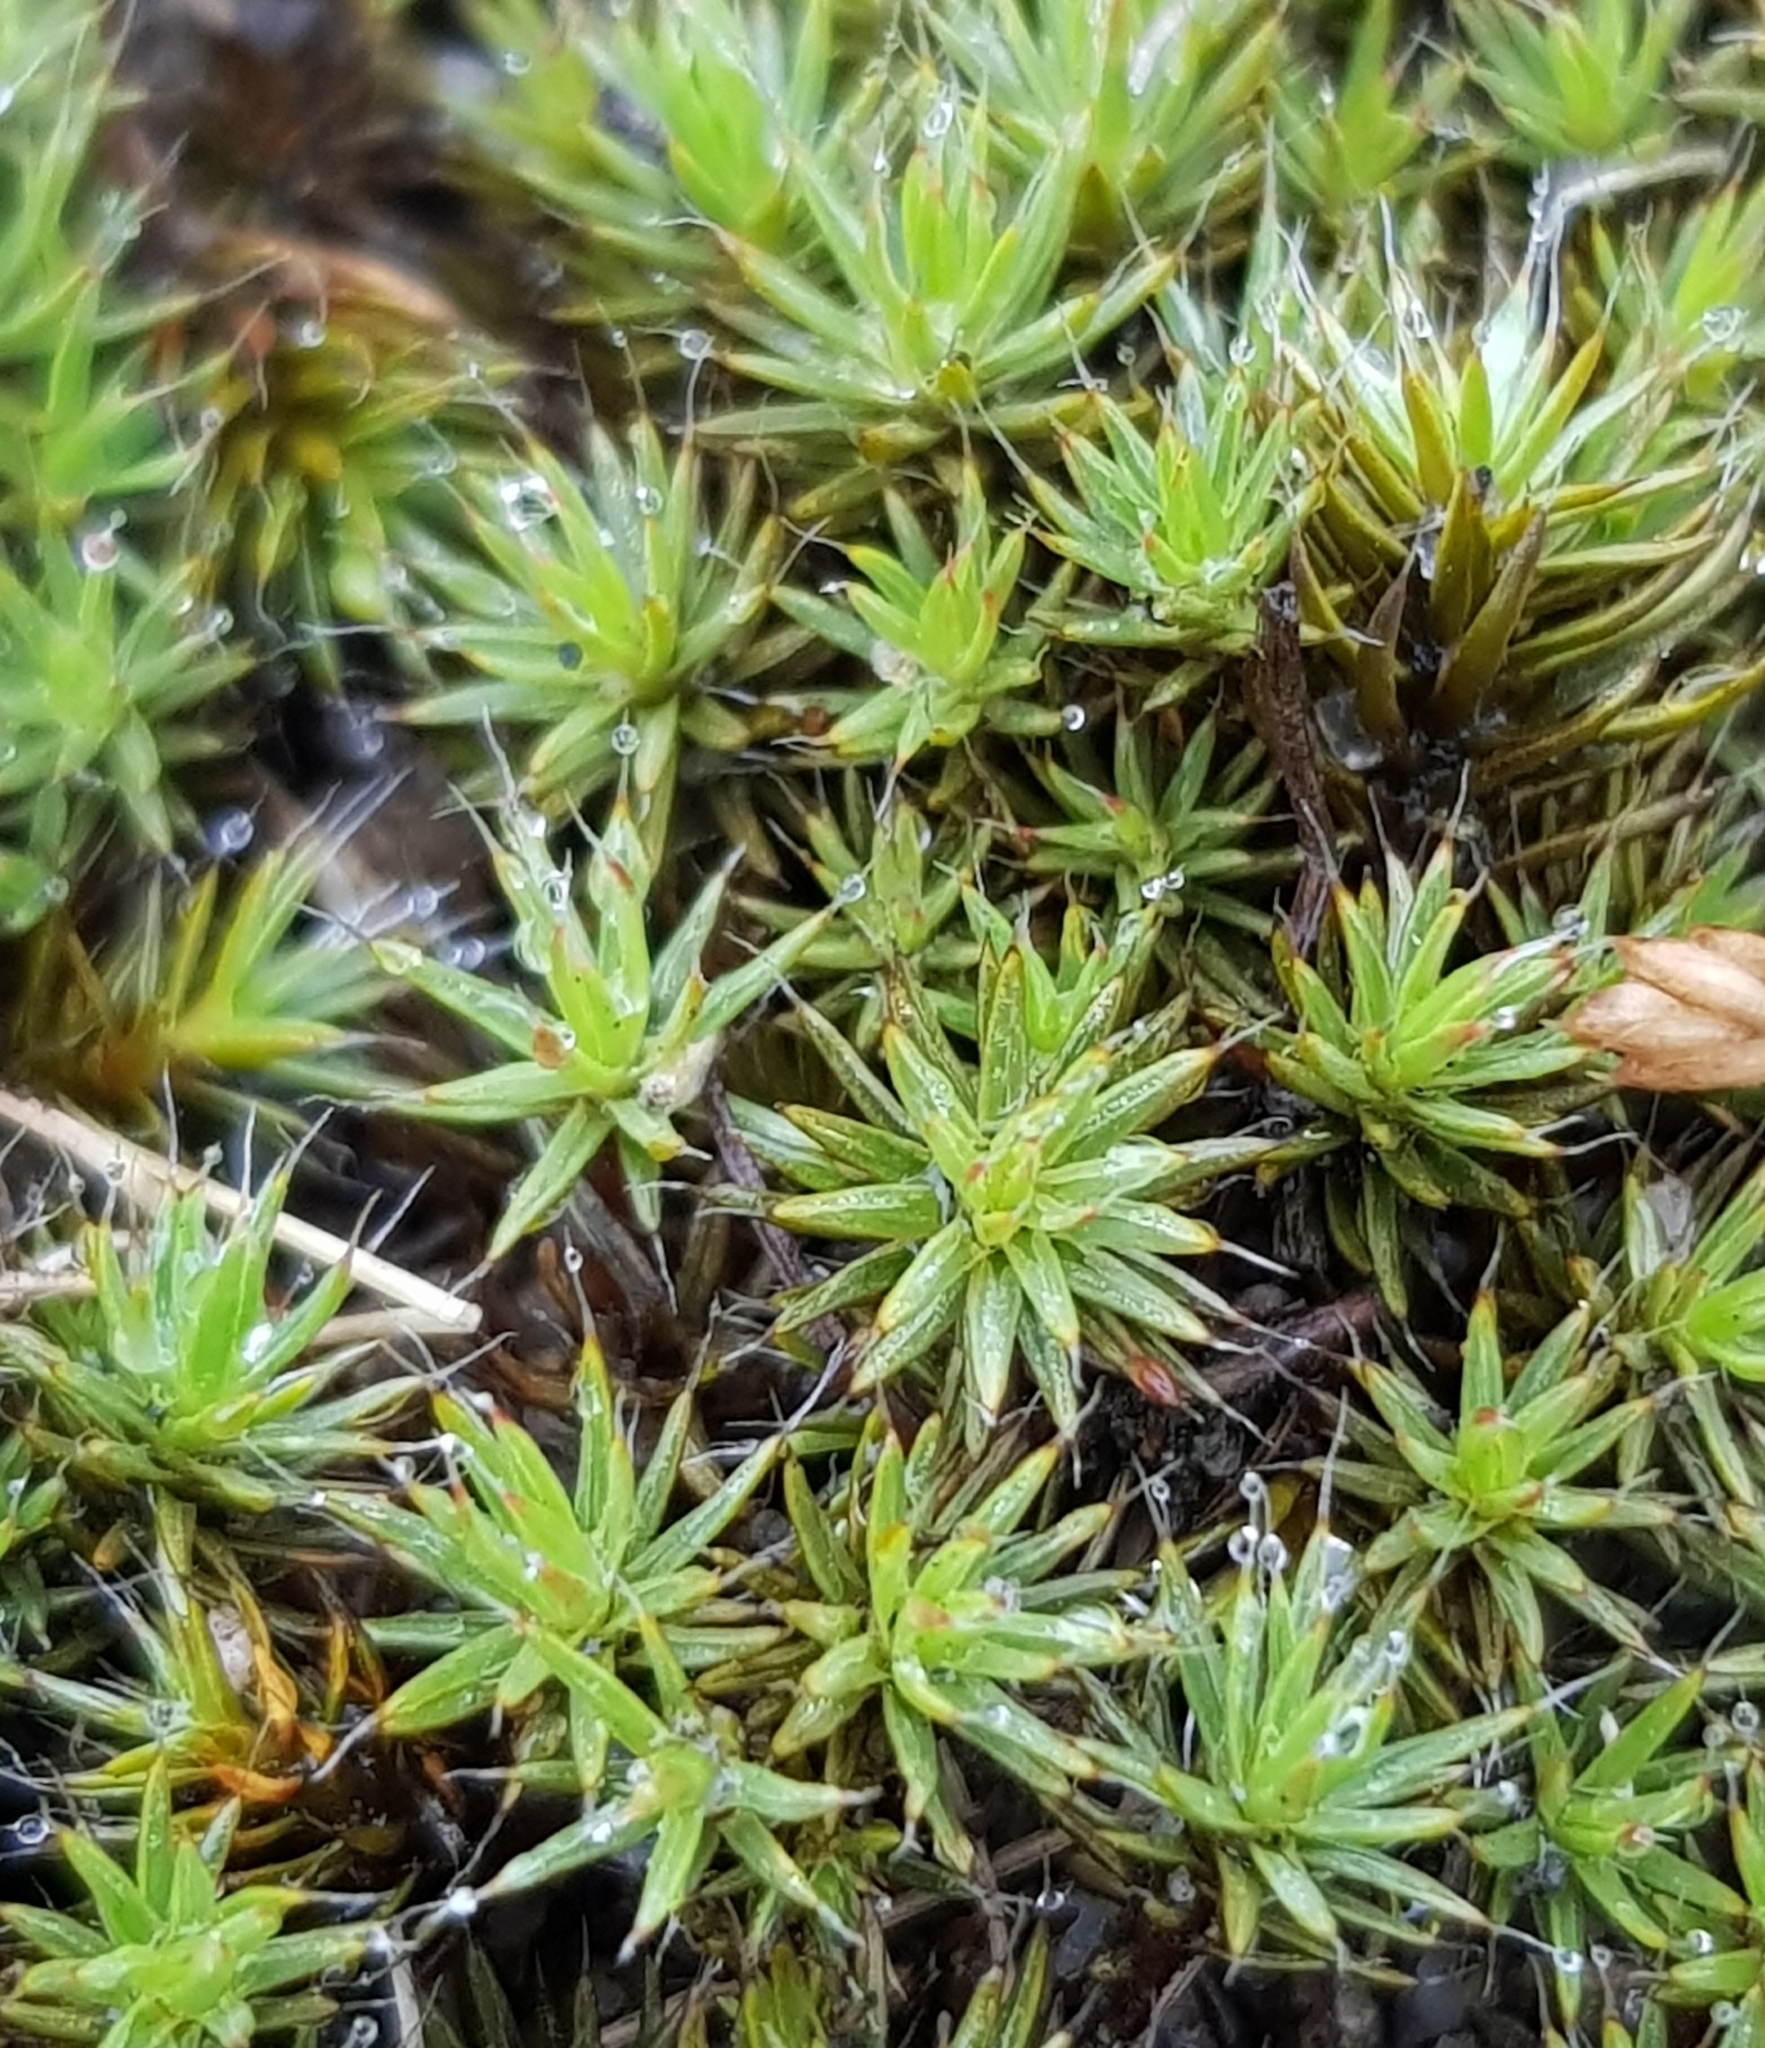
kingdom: Plantae
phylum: Bryophyta
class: Polytrichopsida
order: Polytrichales
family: Polytrichaceae
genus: Polytrichum
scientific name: Polytrichum piliferum
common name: Bristly haircap
